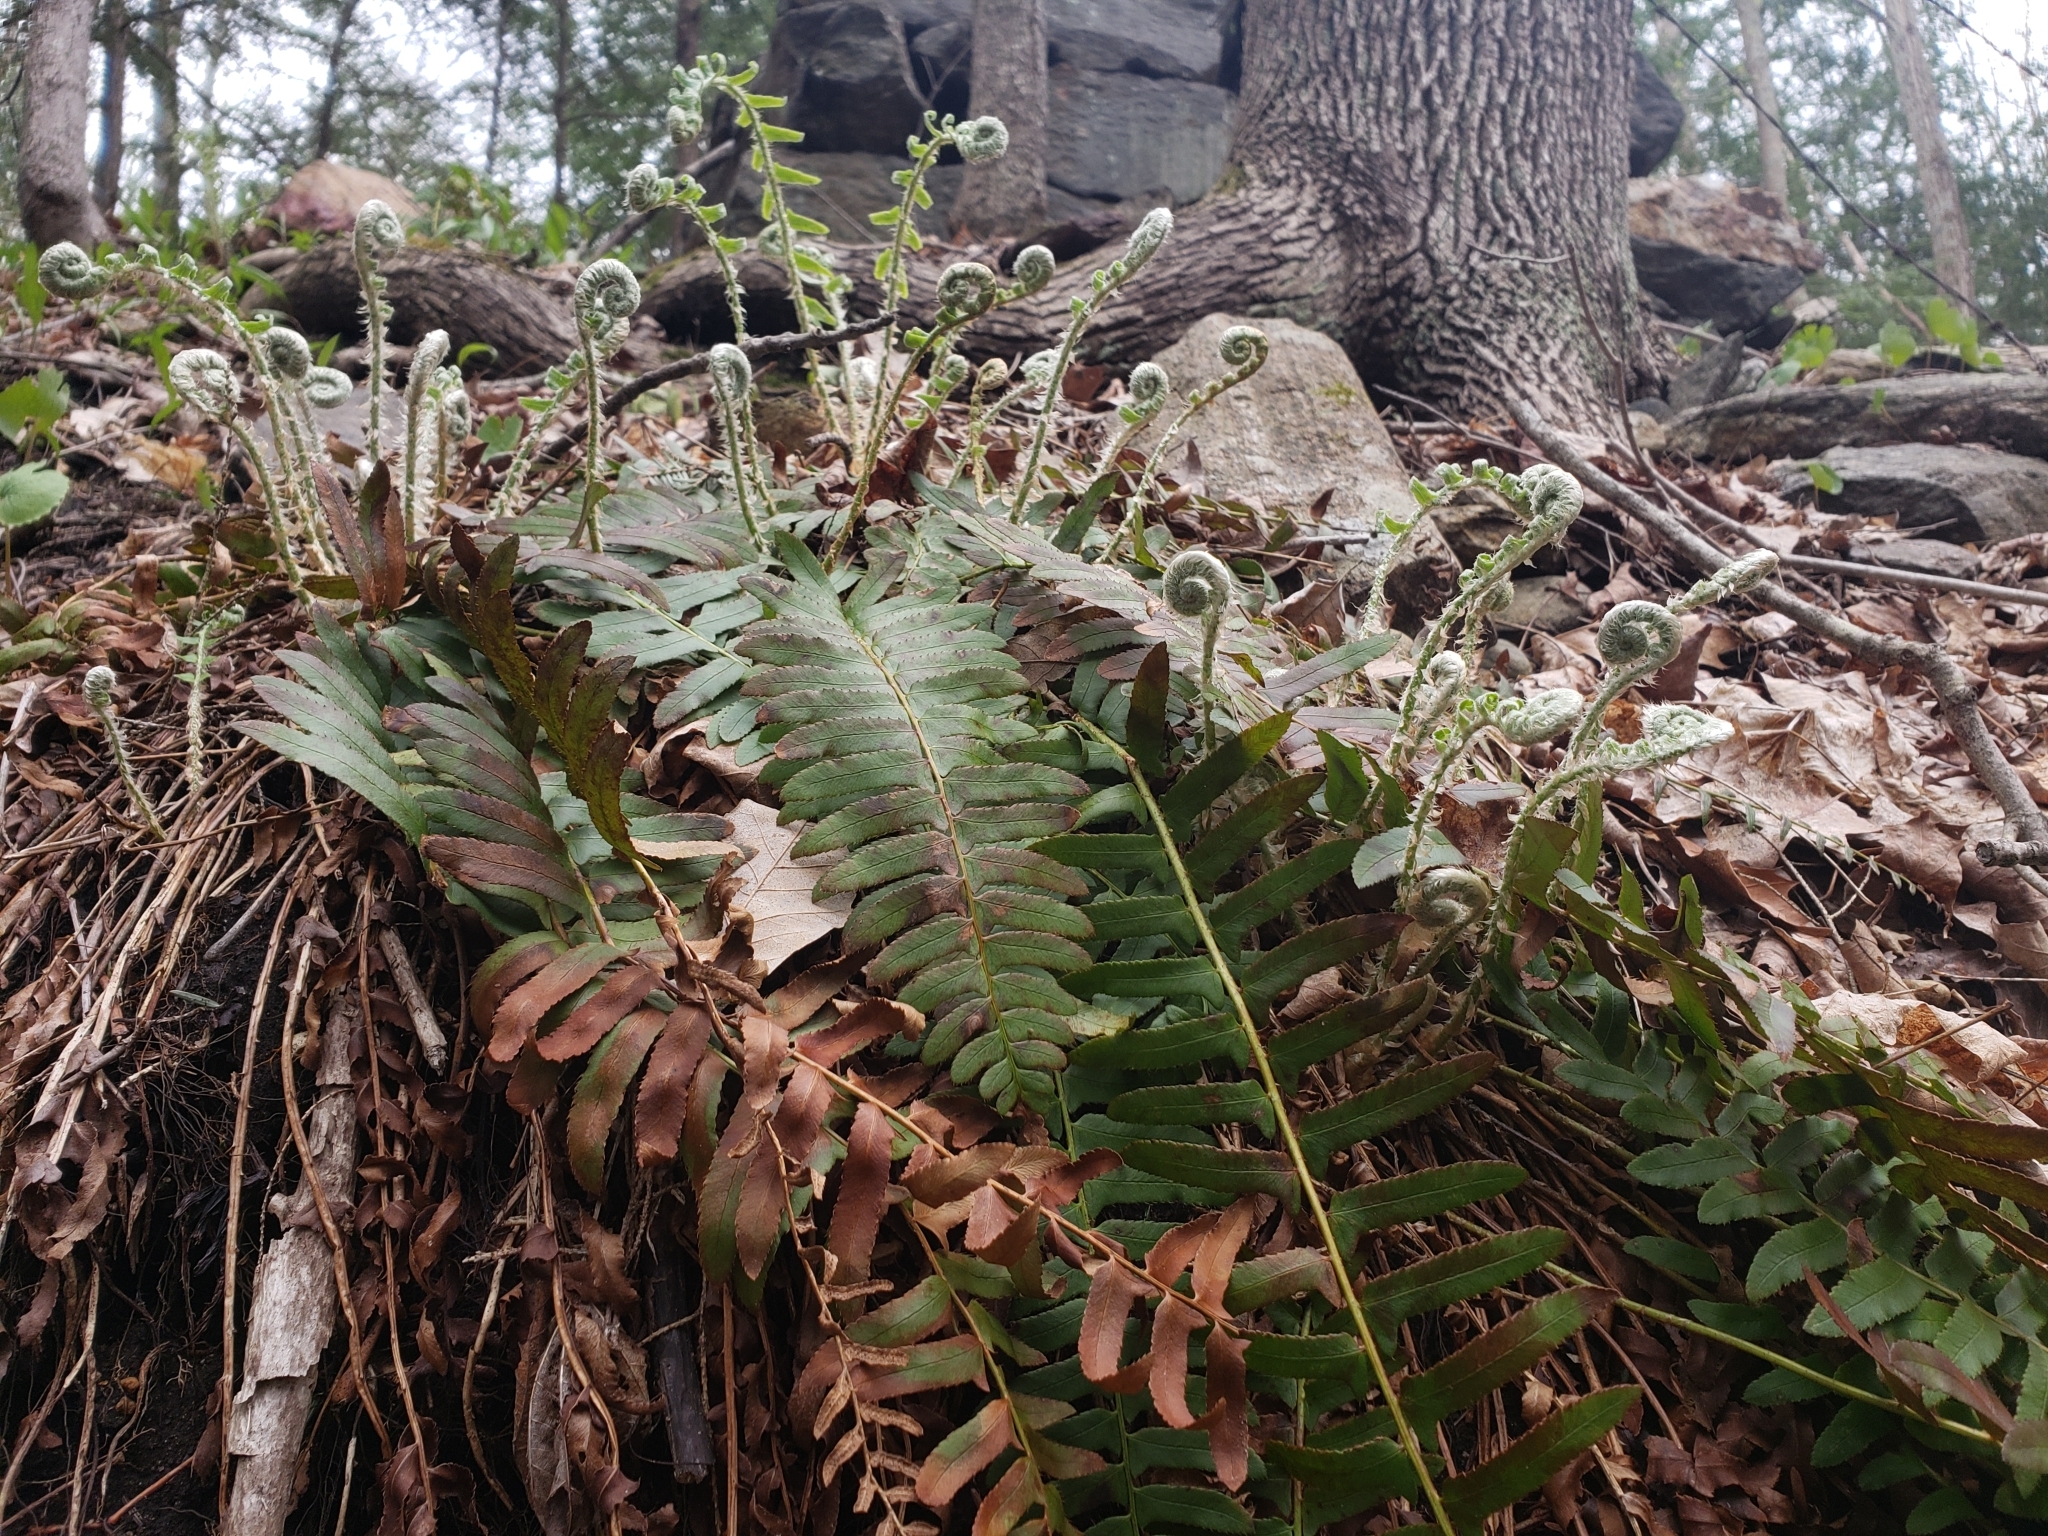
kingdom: Plantae
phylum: Tracheophyta
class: Polypodiopsida
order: Polypodiales
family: Dryopteridaceae
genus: Polystichum
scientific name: Polystichum acrostichoides
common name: Christmas fern
